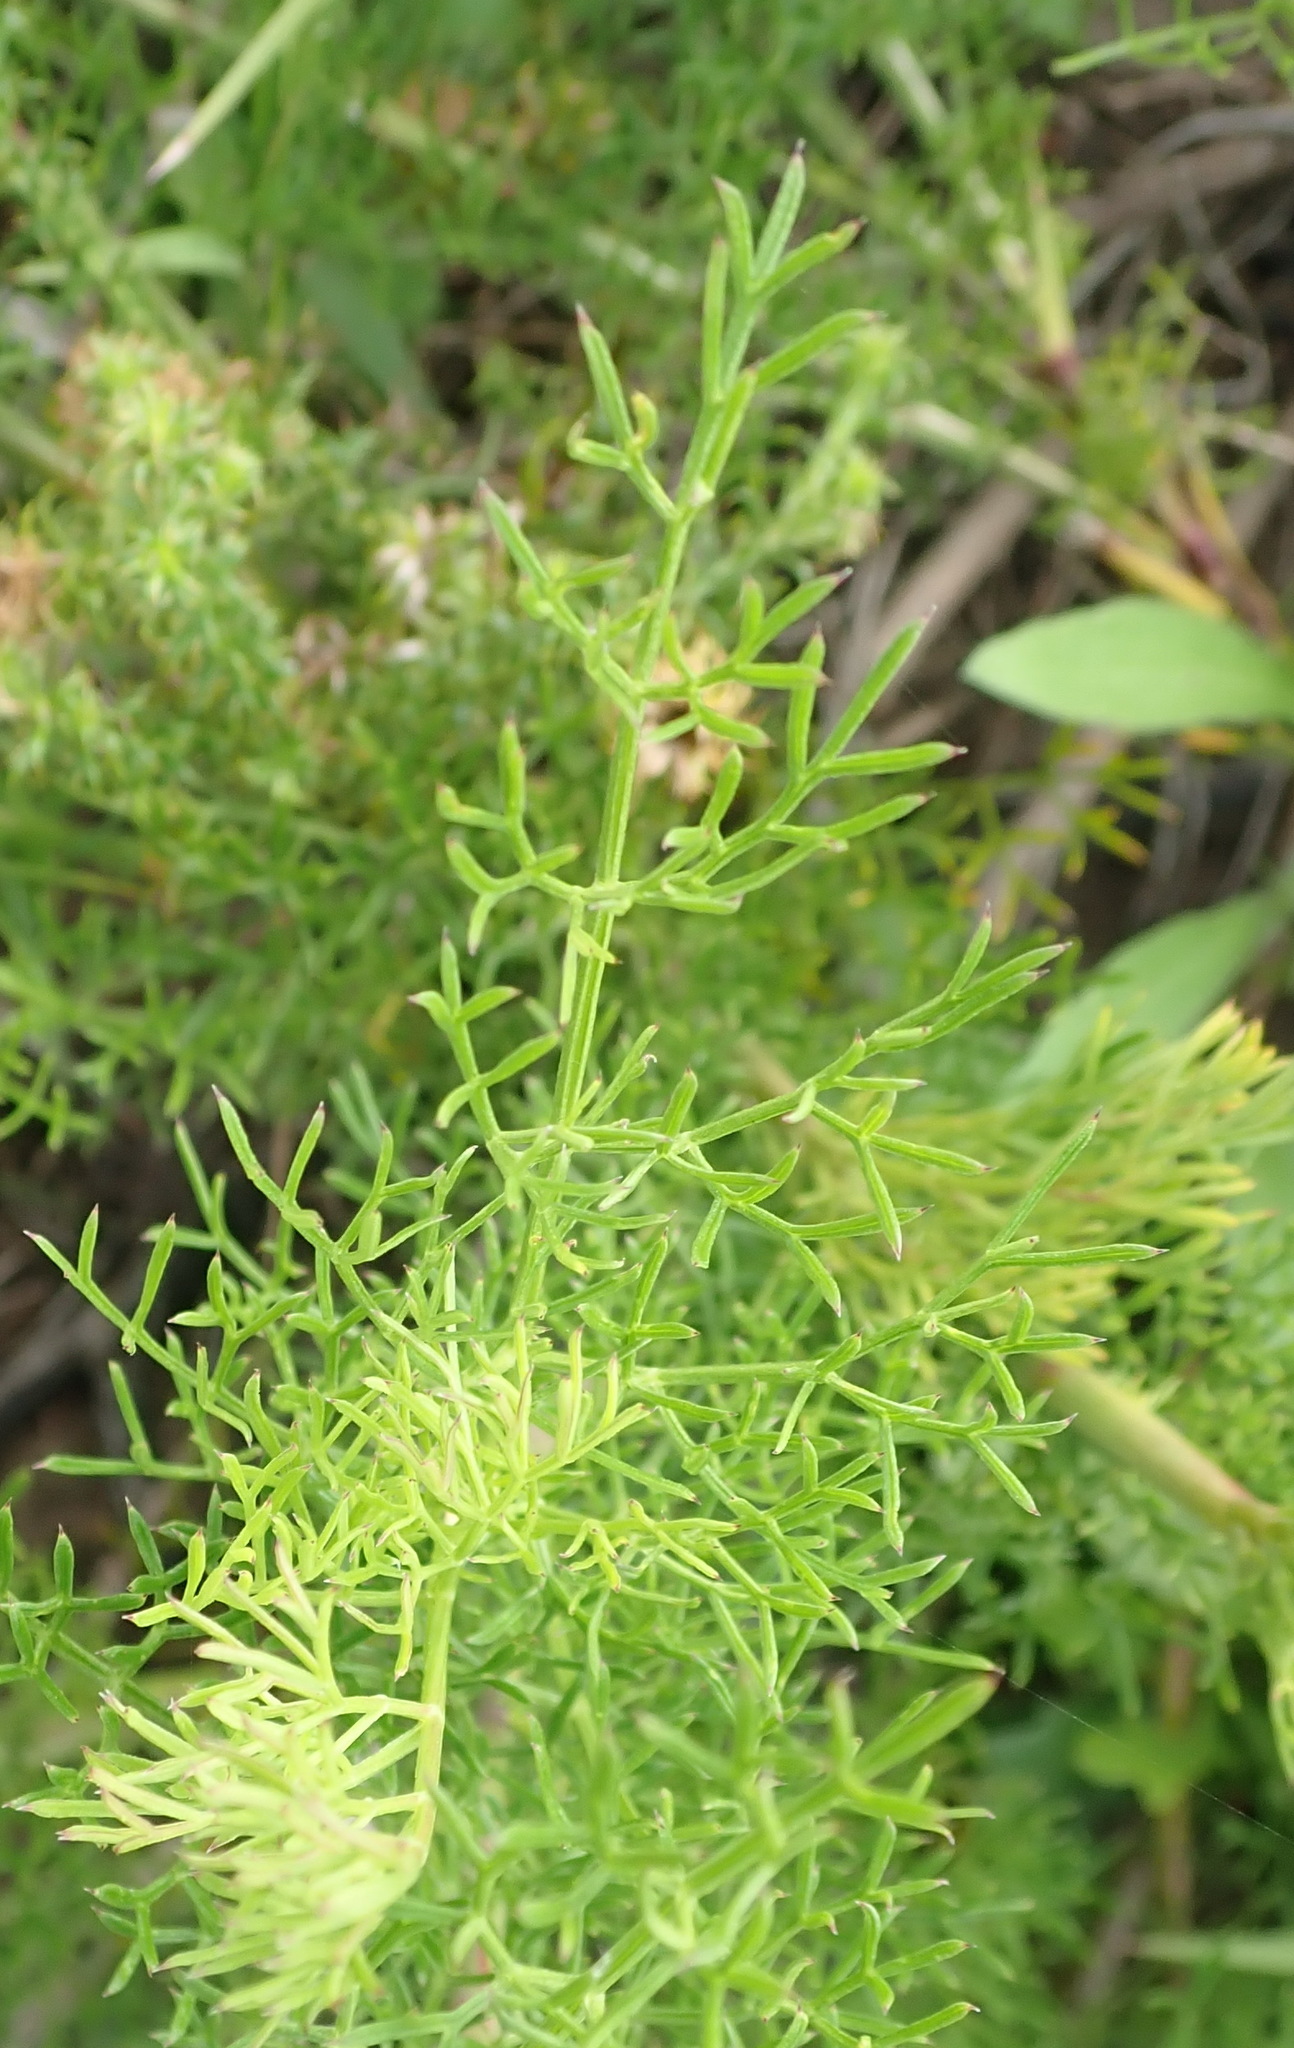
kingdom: Plantae
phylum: Tracheophyta
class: Magnoliopsida
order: Apiales
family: Apiaceae
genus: Notobubon
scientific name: Notobubon ferulaceum
